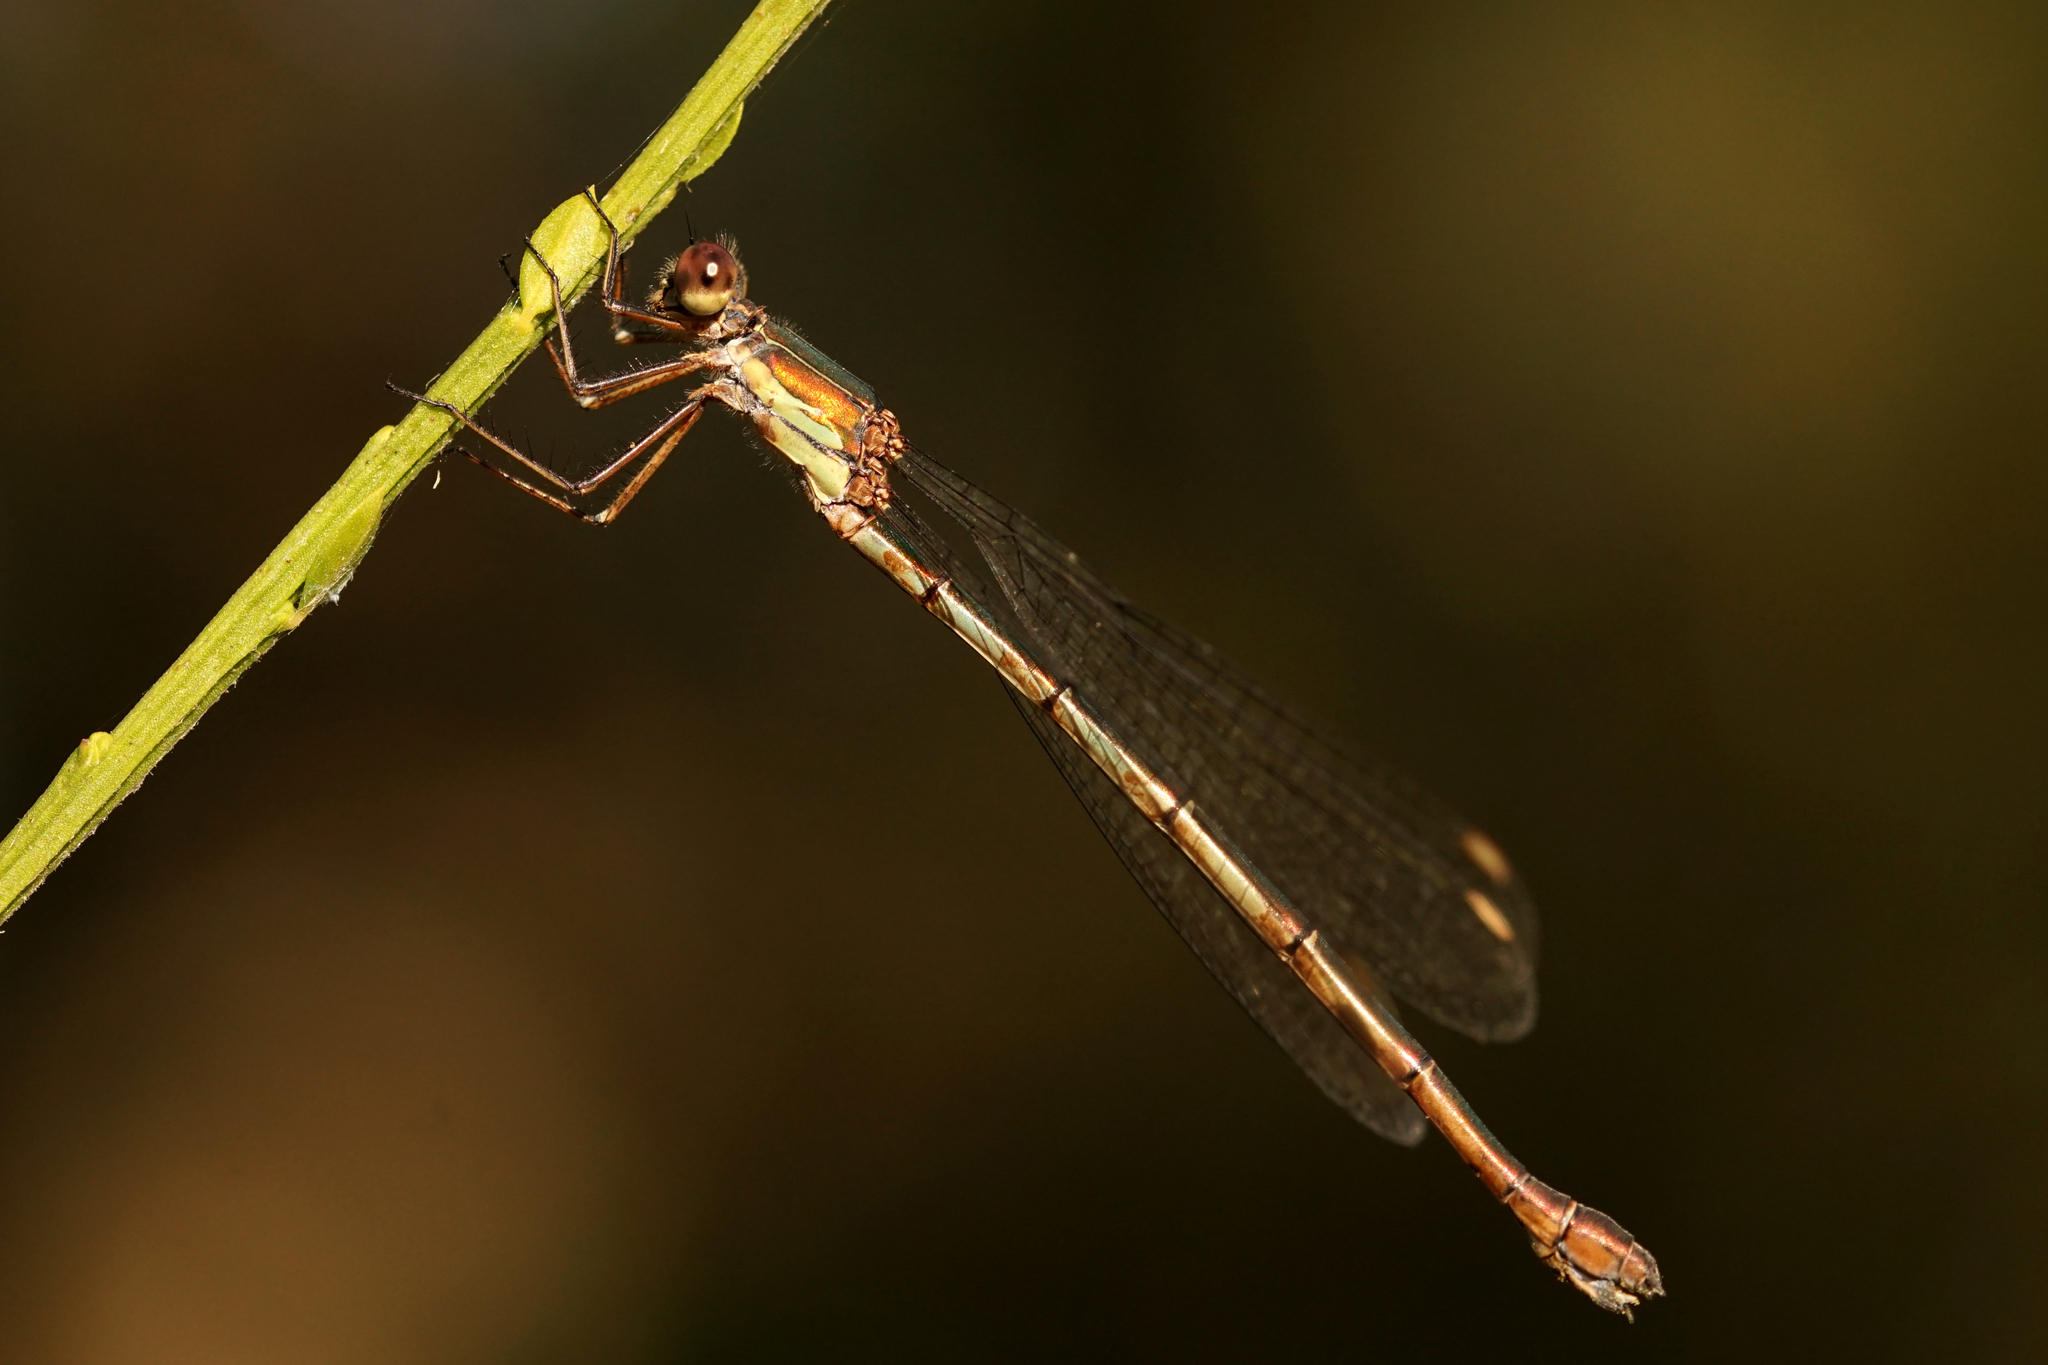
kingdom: Animalia
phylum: Arthropoda
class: Insecta
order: Odonata
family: Lestidae
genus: Chalcolestes
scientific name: Chalcolestes viridis
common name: Green emerald damselfly
